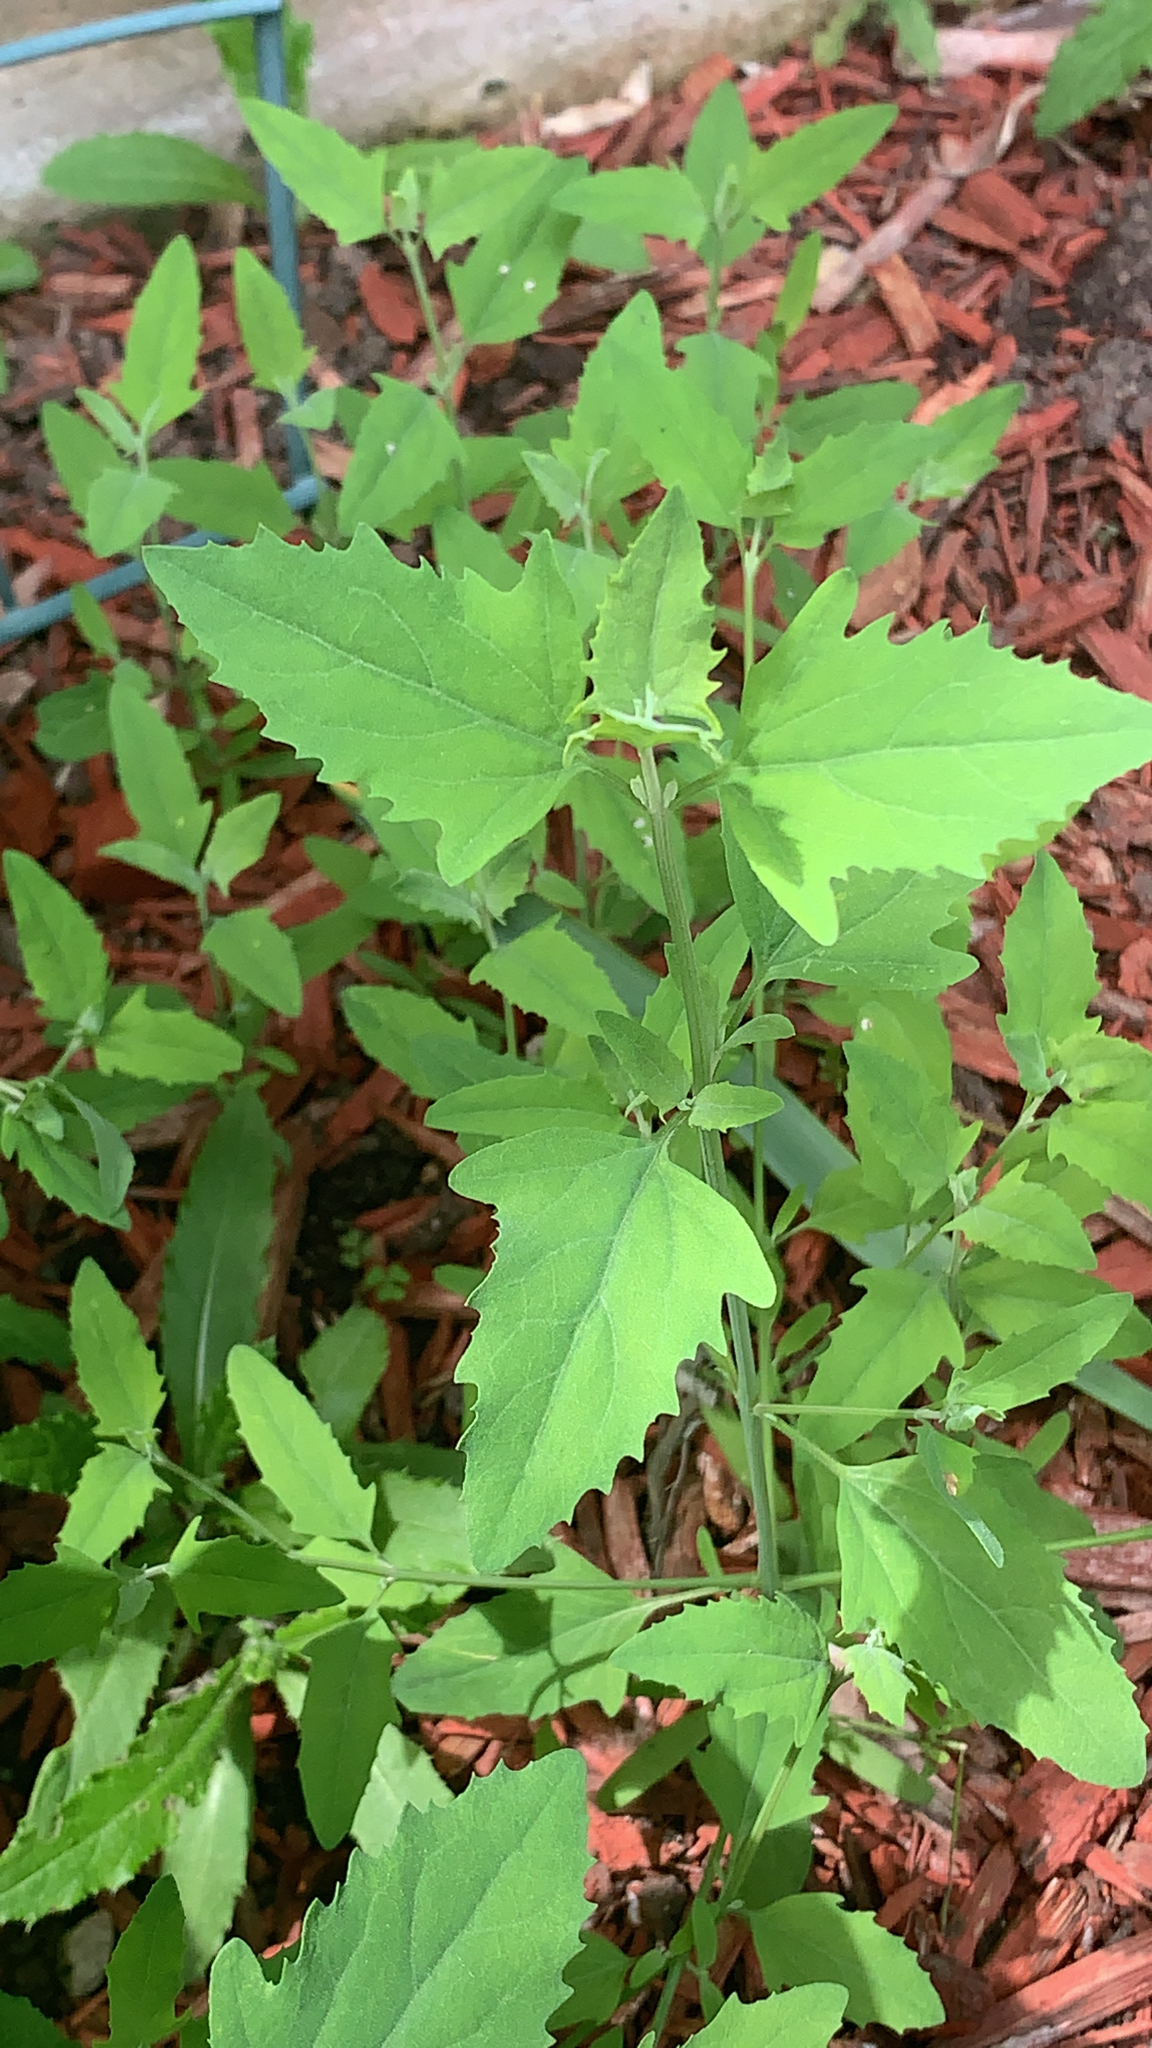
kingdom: Plantae
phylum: Tracheophyta
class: Magnoliopsida
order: Caryophyllales
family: Amaranthaceae
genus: Chenopodium
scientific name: Chenopodium album
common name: Fat-hen
